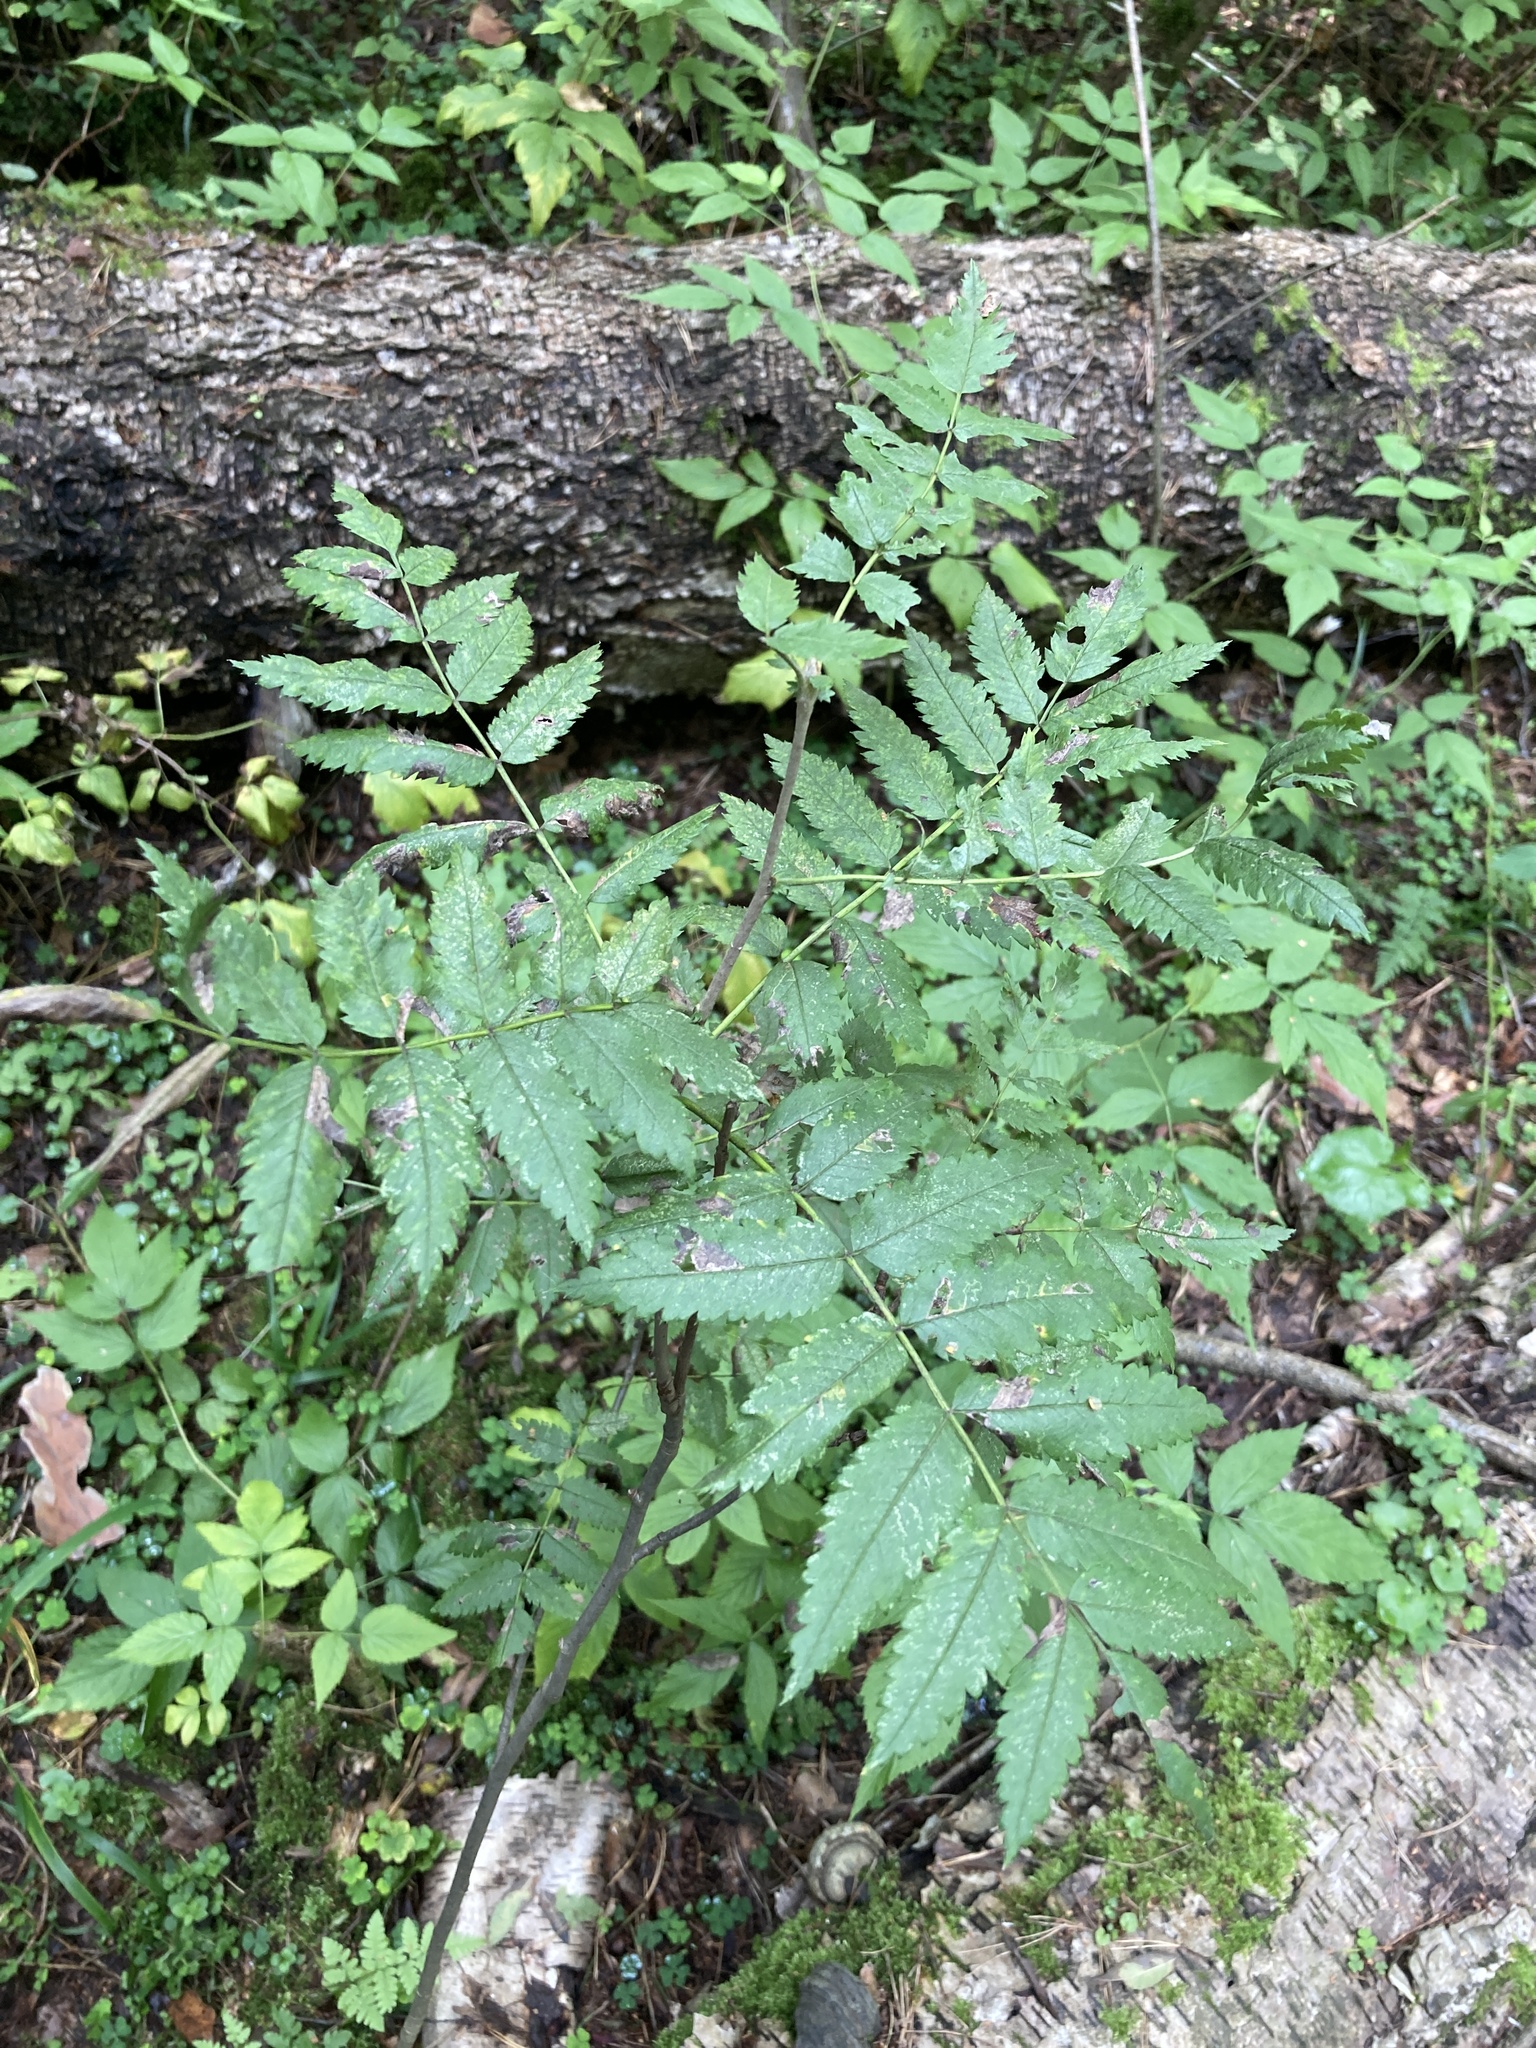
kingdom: Plantae
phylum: Tracheophyta
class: Magnoliopsida
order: Rosales
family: Rosaceae
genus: Sorbus
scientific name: Sorbus aucuparia
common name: Rowan
